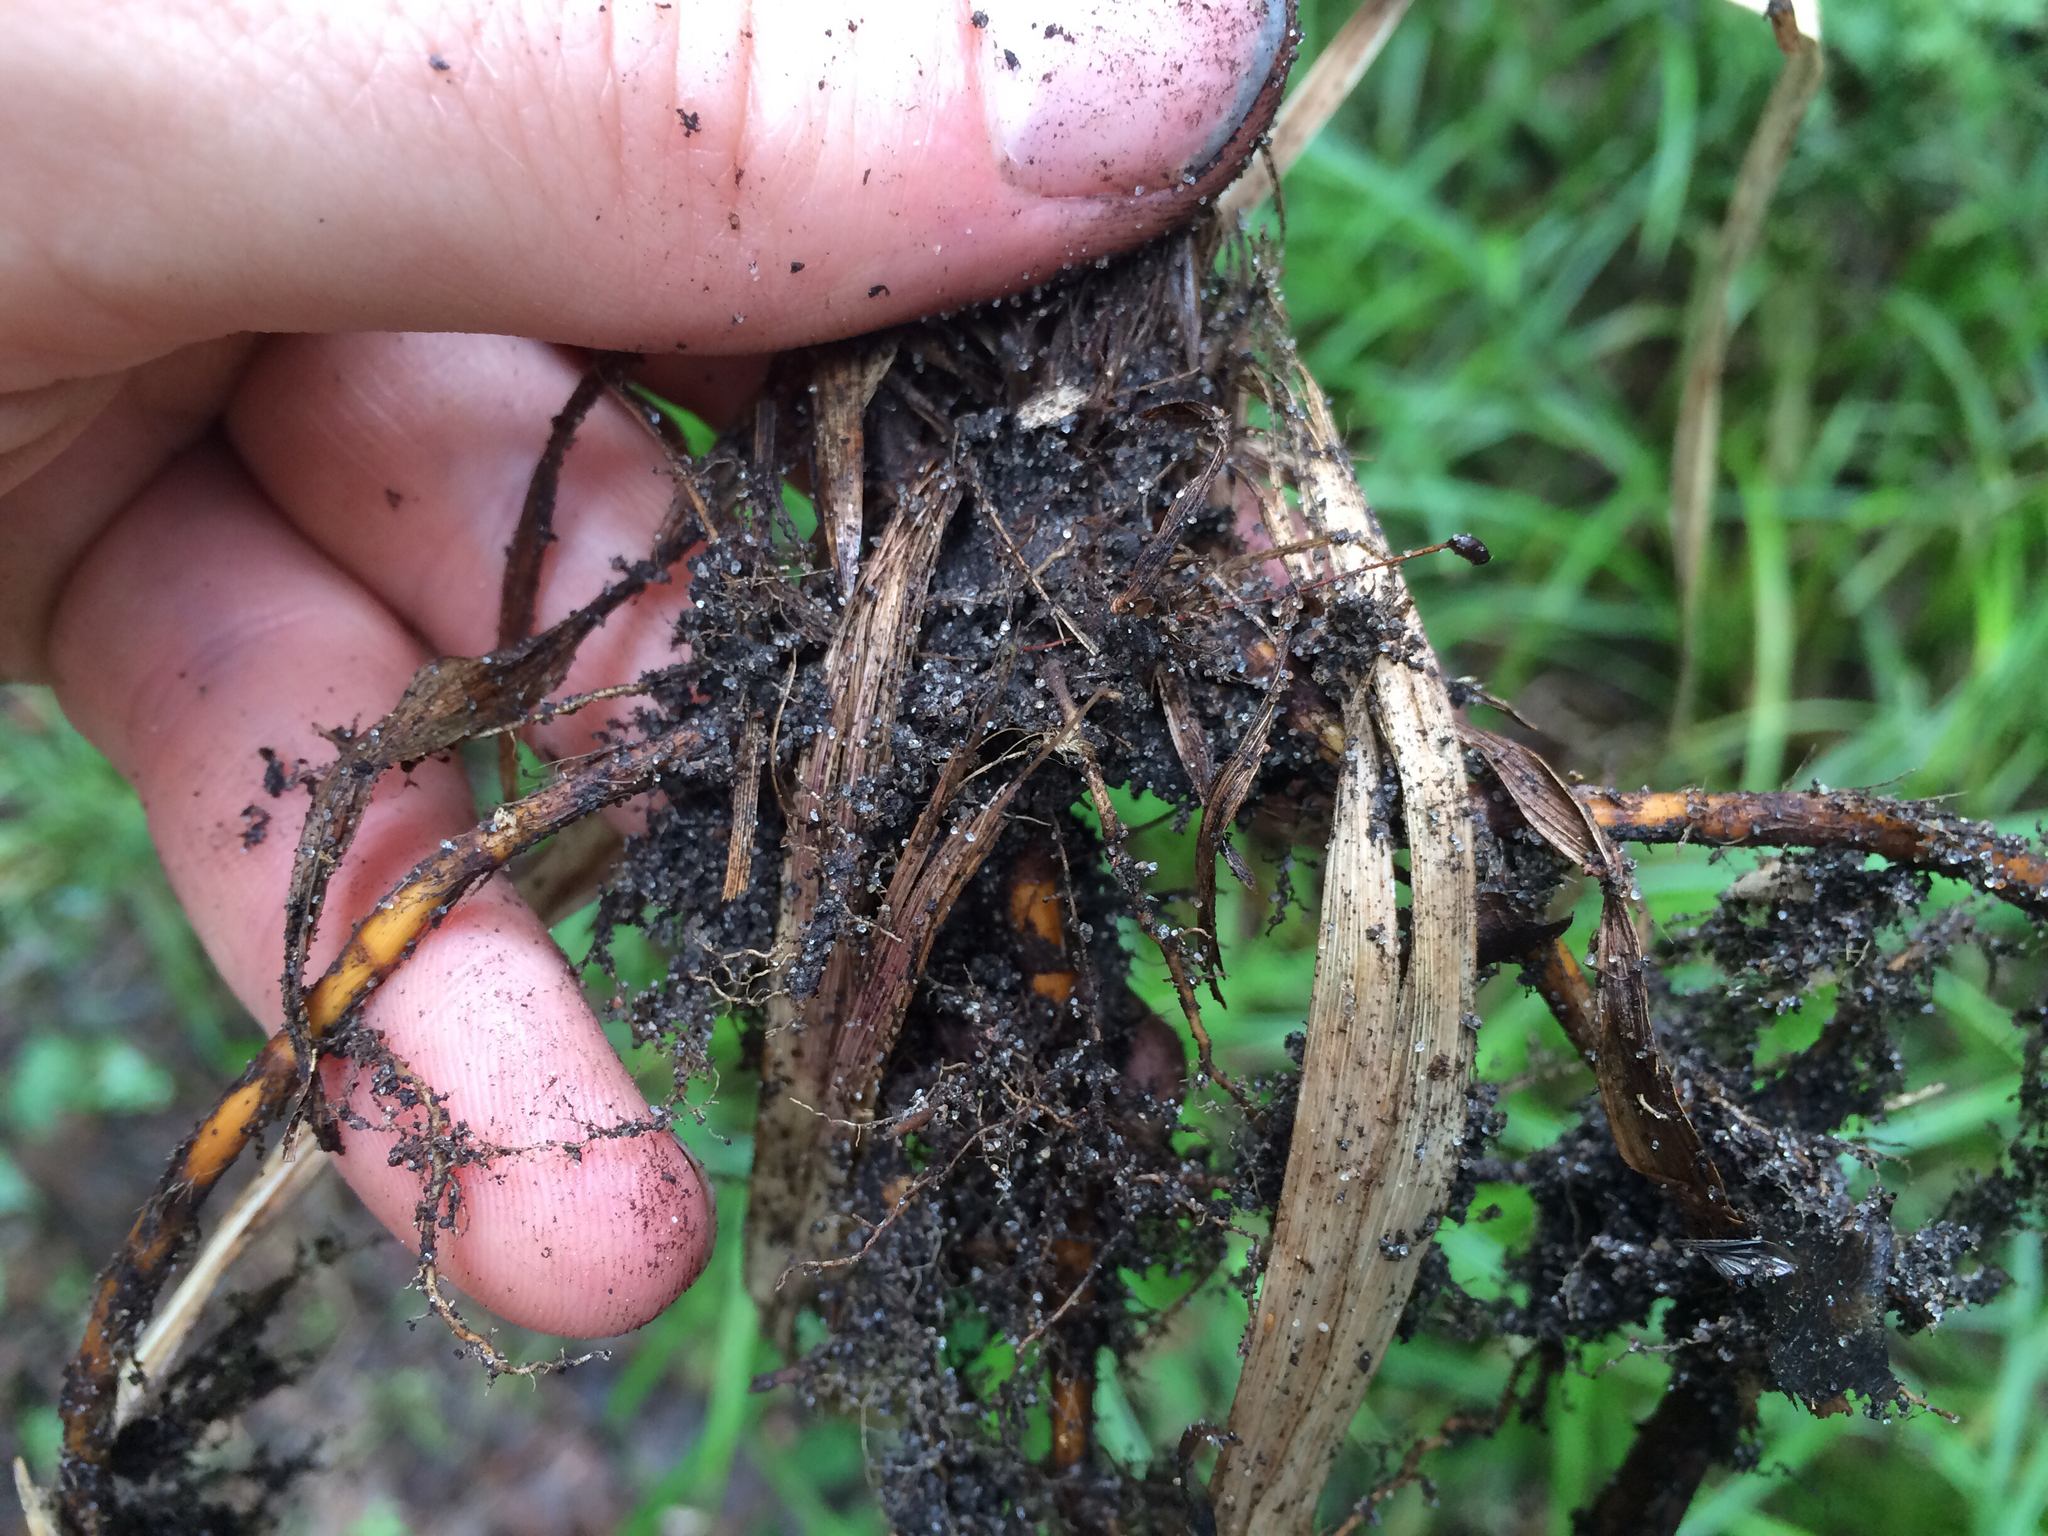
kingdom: Plantae
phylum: Tracheophyta
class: Liliopsida
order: Poales
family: Cyperaceae
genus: Carex
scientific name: Carex scabrata
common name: Eastern rough sedge
